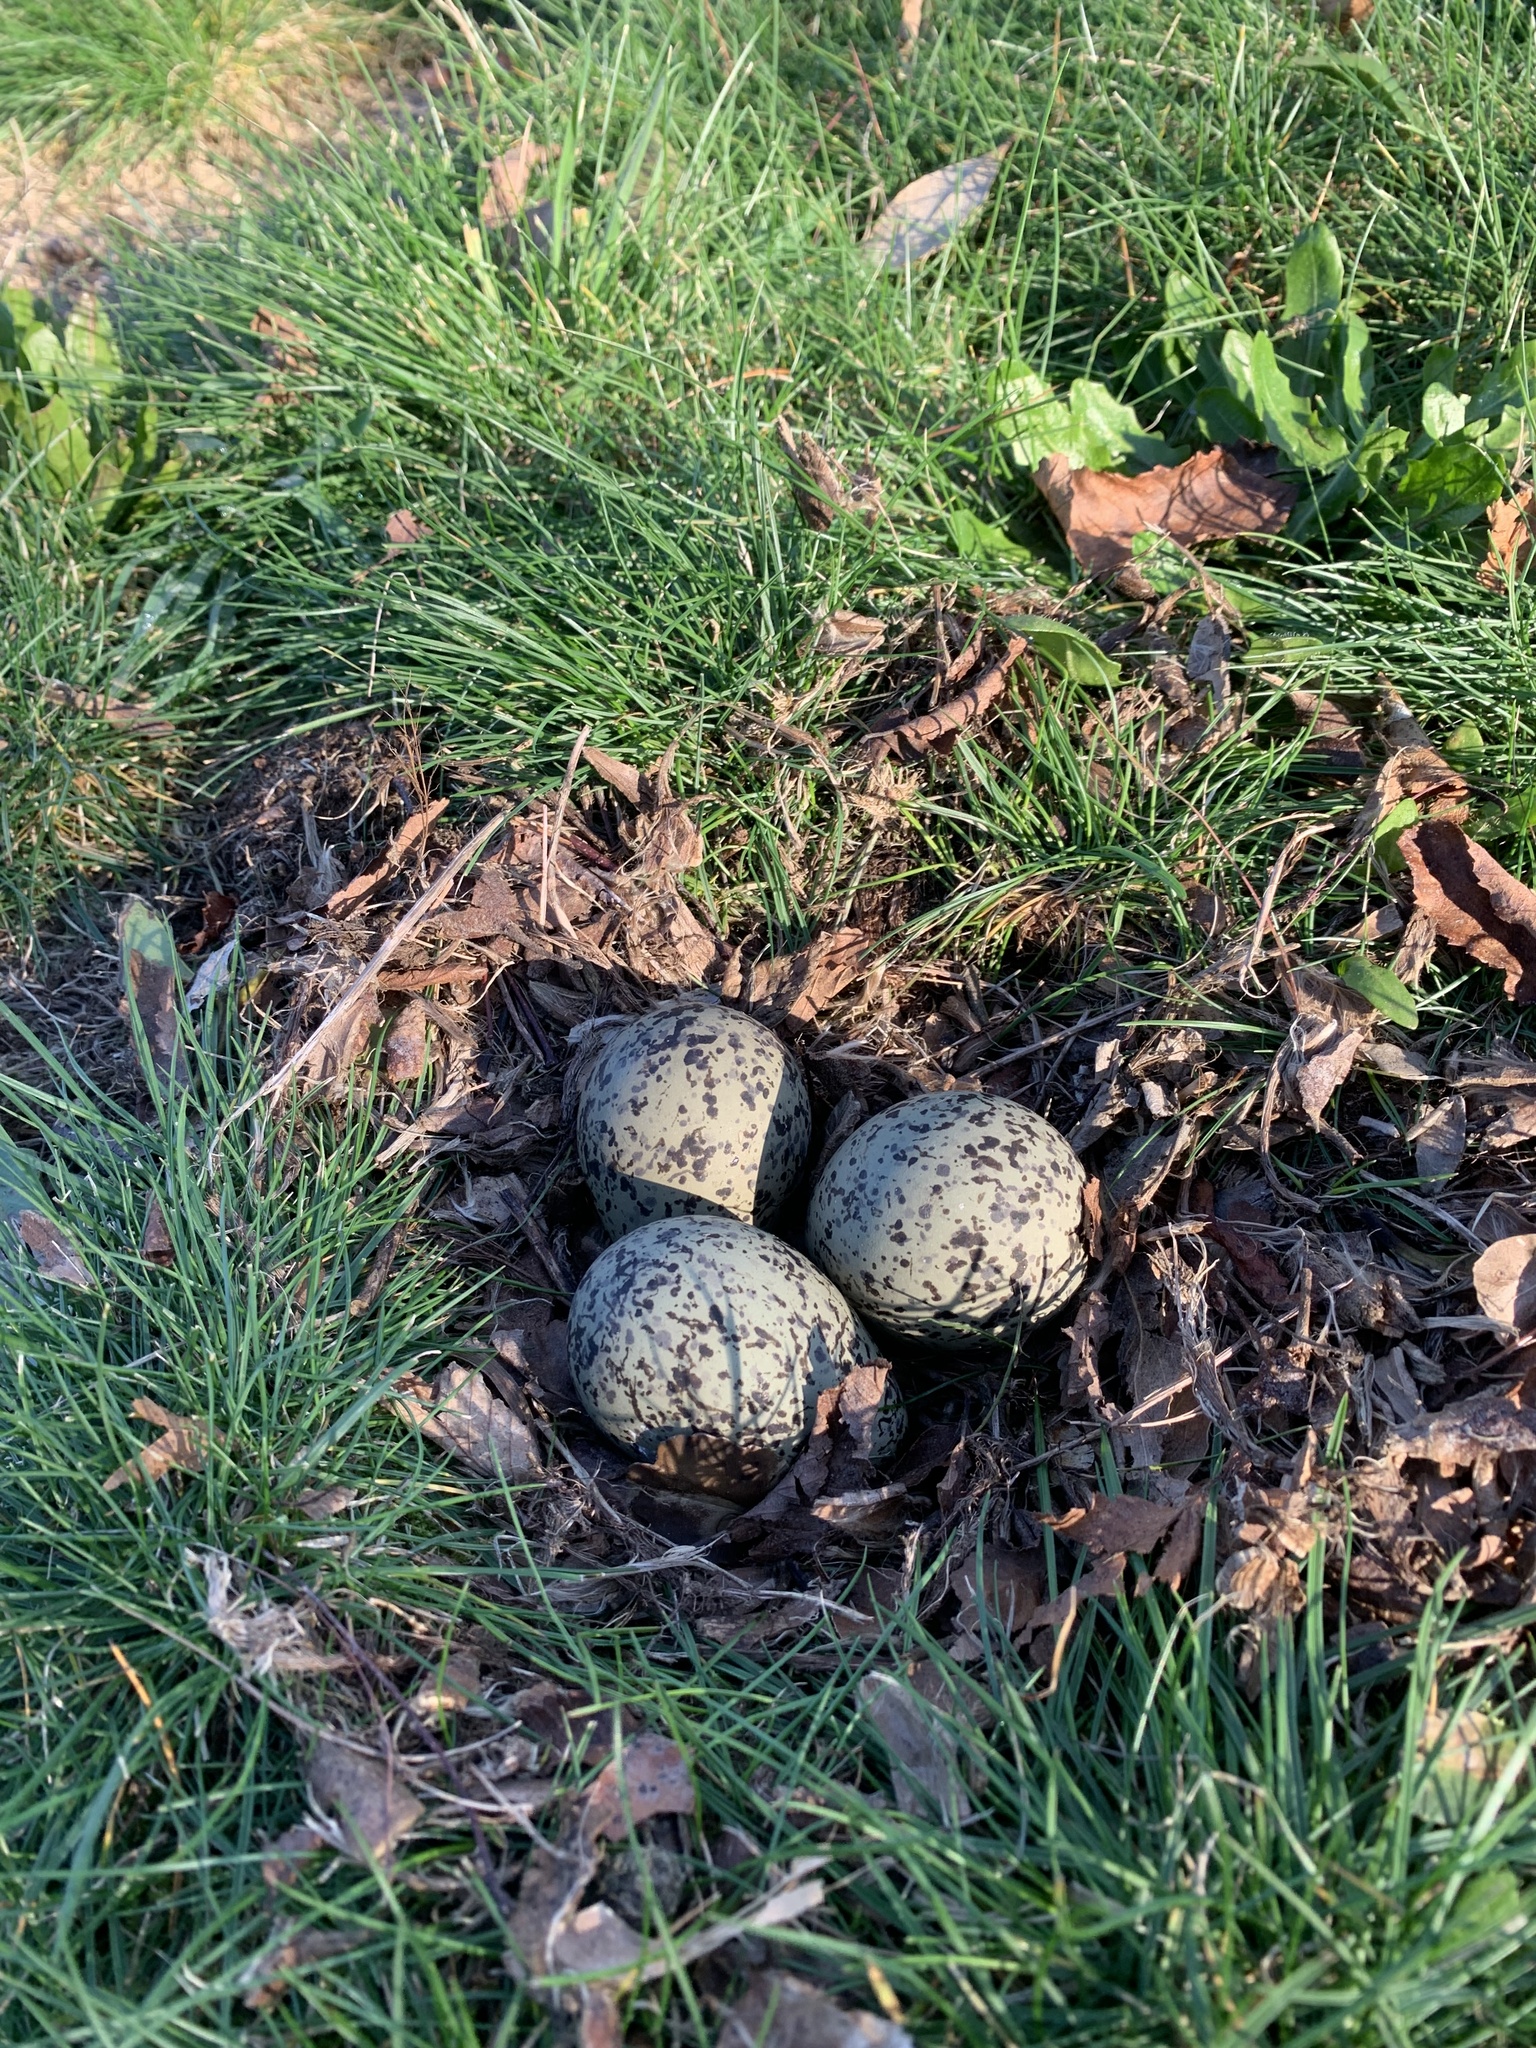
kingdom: Animalia
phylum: Chordata
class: Aves
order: Charadriiformes
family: Charadriidae
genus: Vanellus
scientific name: Vanellus chilensis
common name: Southern lapwing
